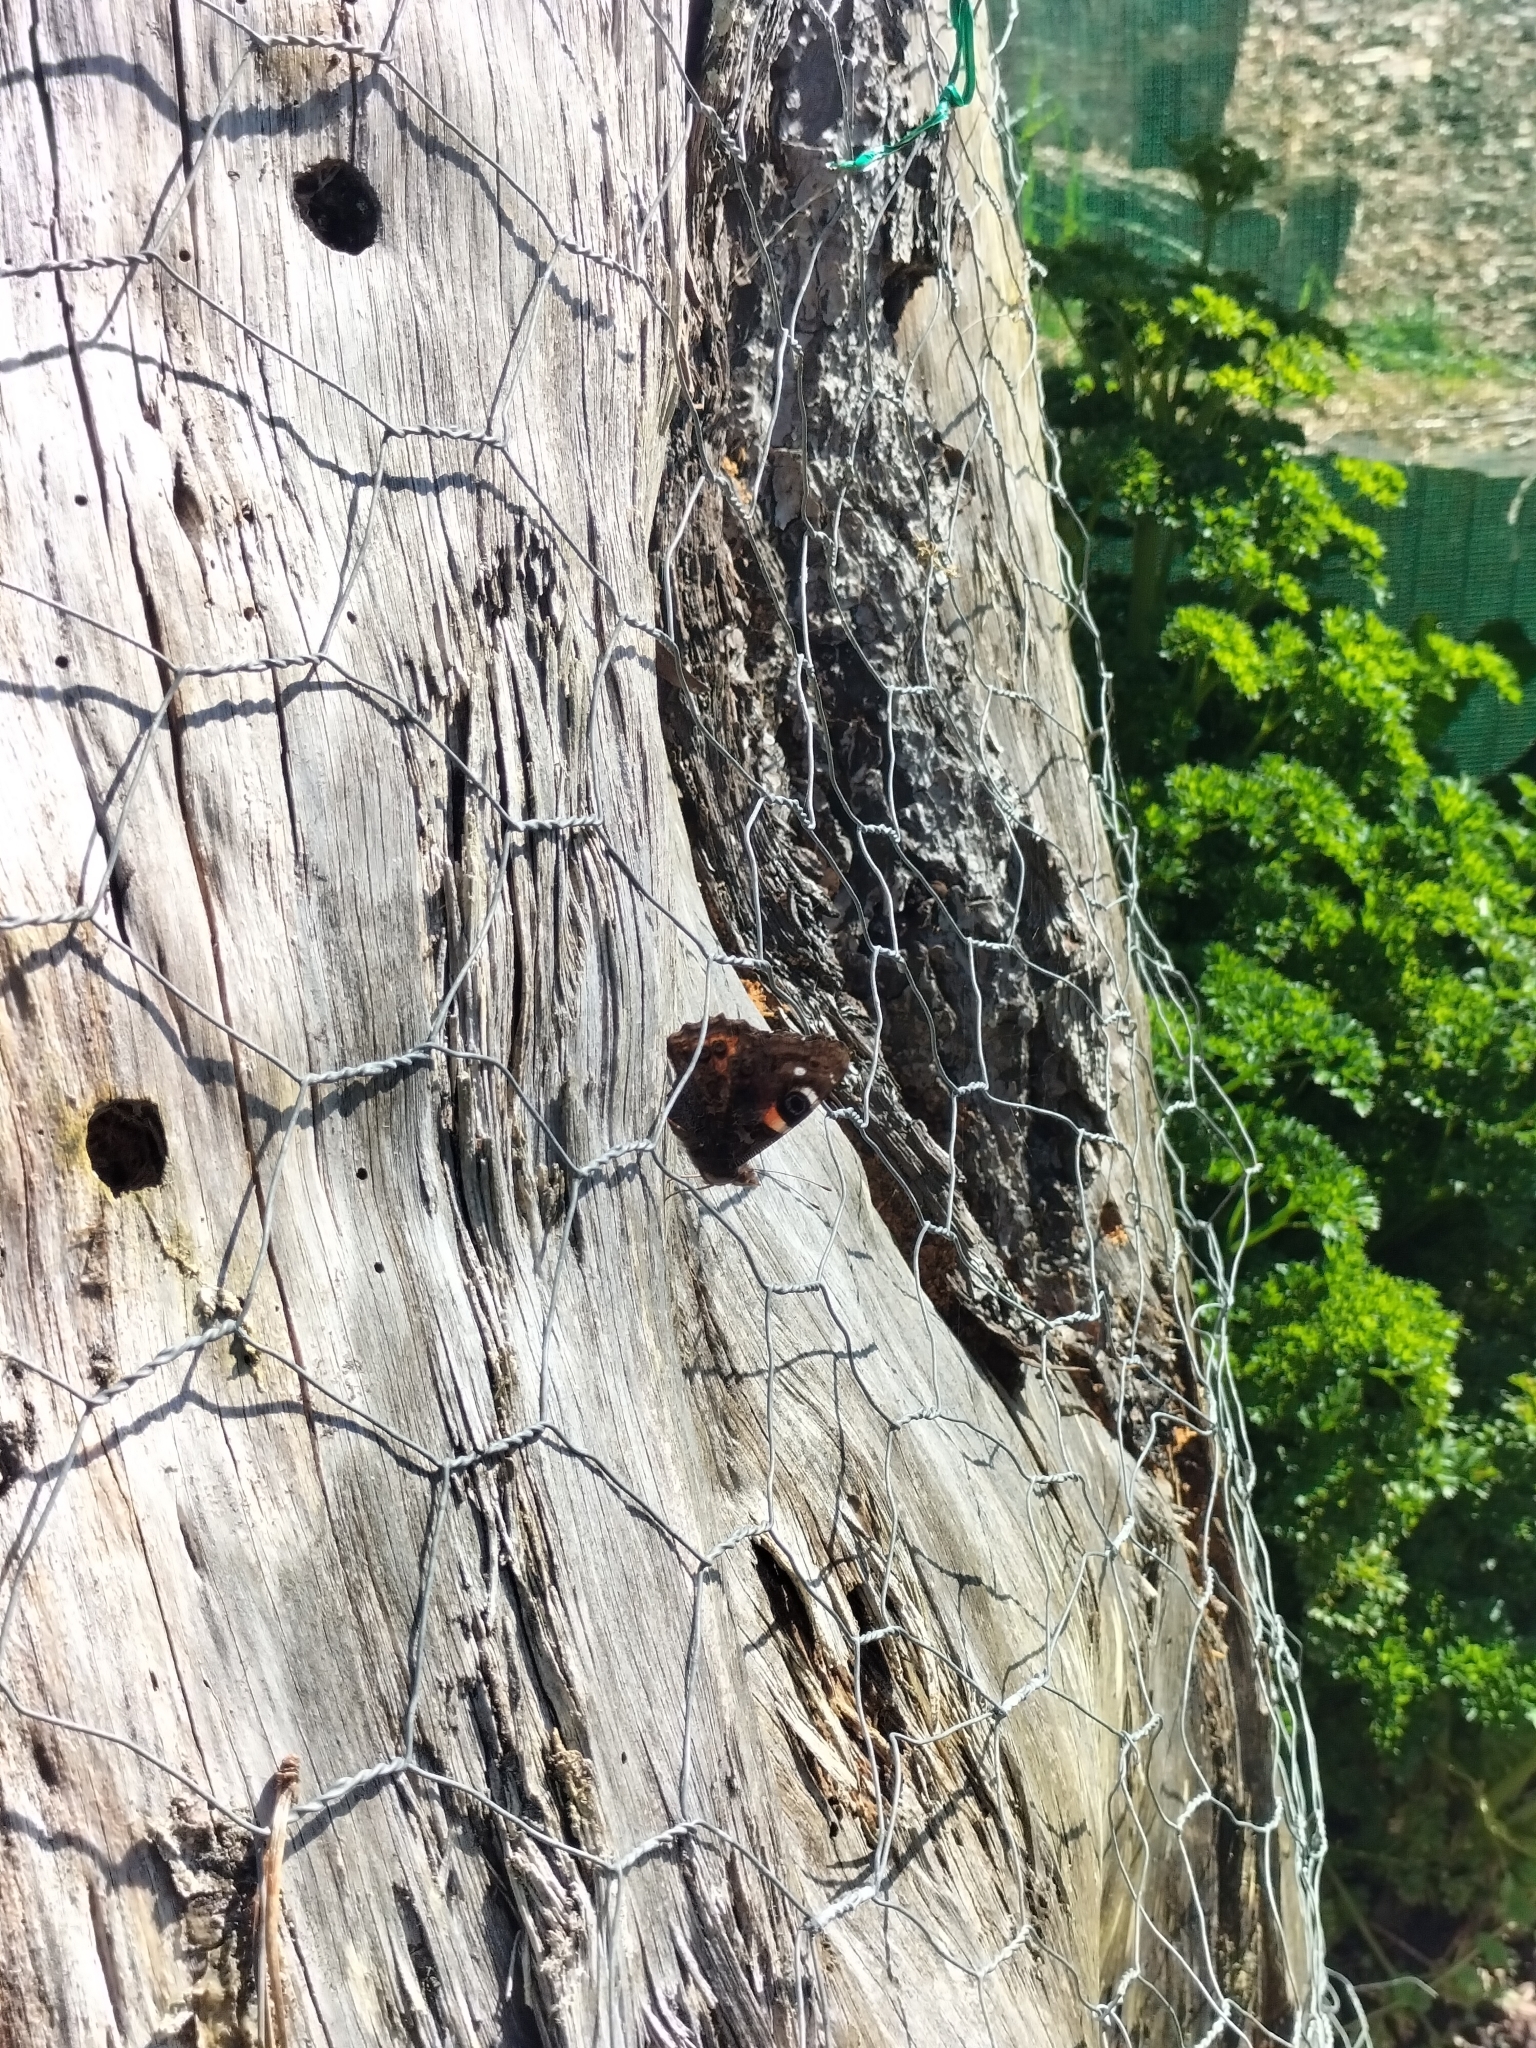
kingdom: Animalia
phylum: Arthropoda
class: Insecta
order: Lepidoptera
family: Nymphalidae
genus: Vanessa
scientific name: Vanessa gonerilla
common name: New zealand red admiral
